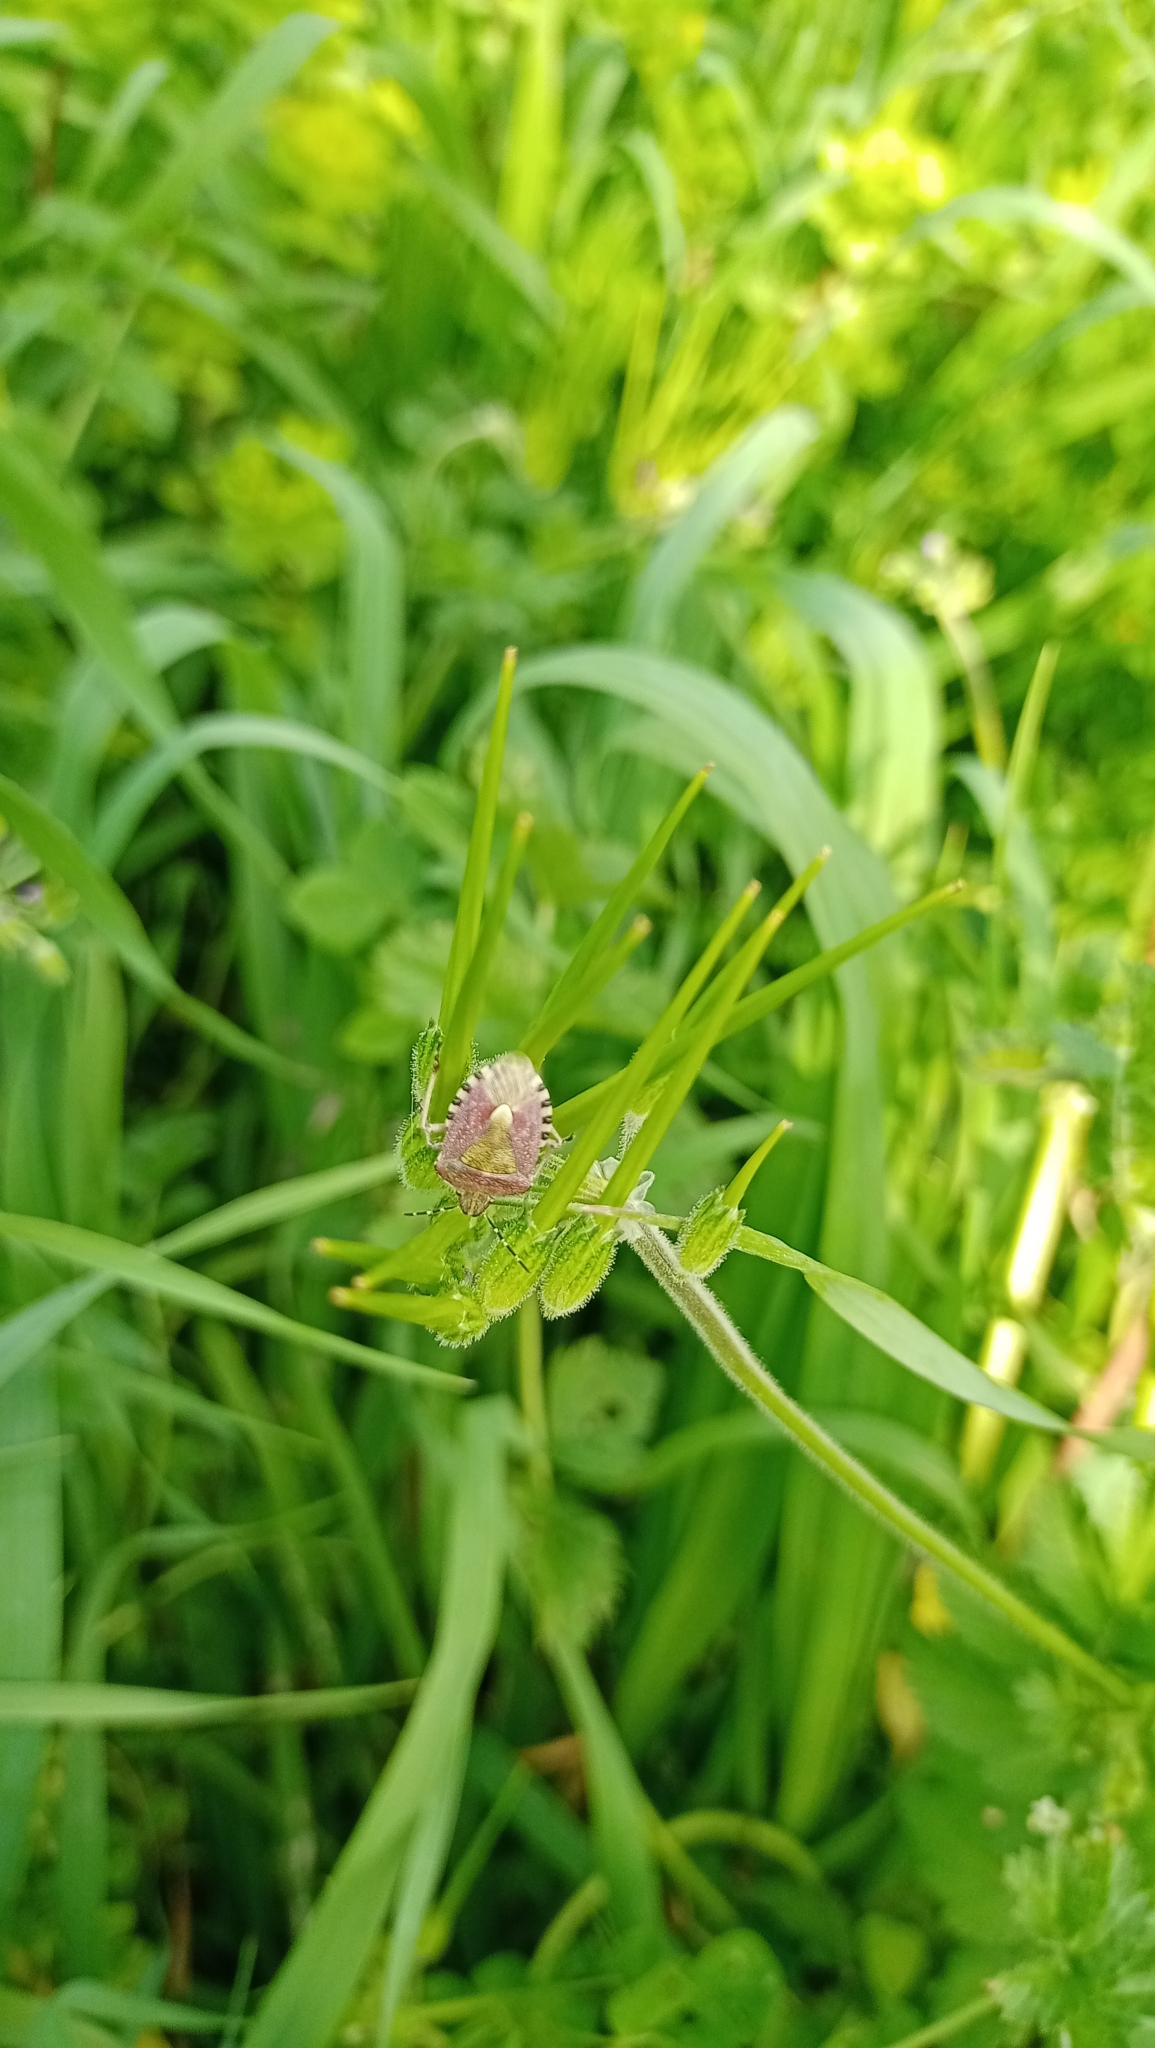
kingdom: Animalia
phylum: Arthropoda
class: Insecta
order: Hemiptera
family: Pentatomidae
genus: Dolycoris
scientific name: Dolycoris baccarum
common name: Sloe bug
